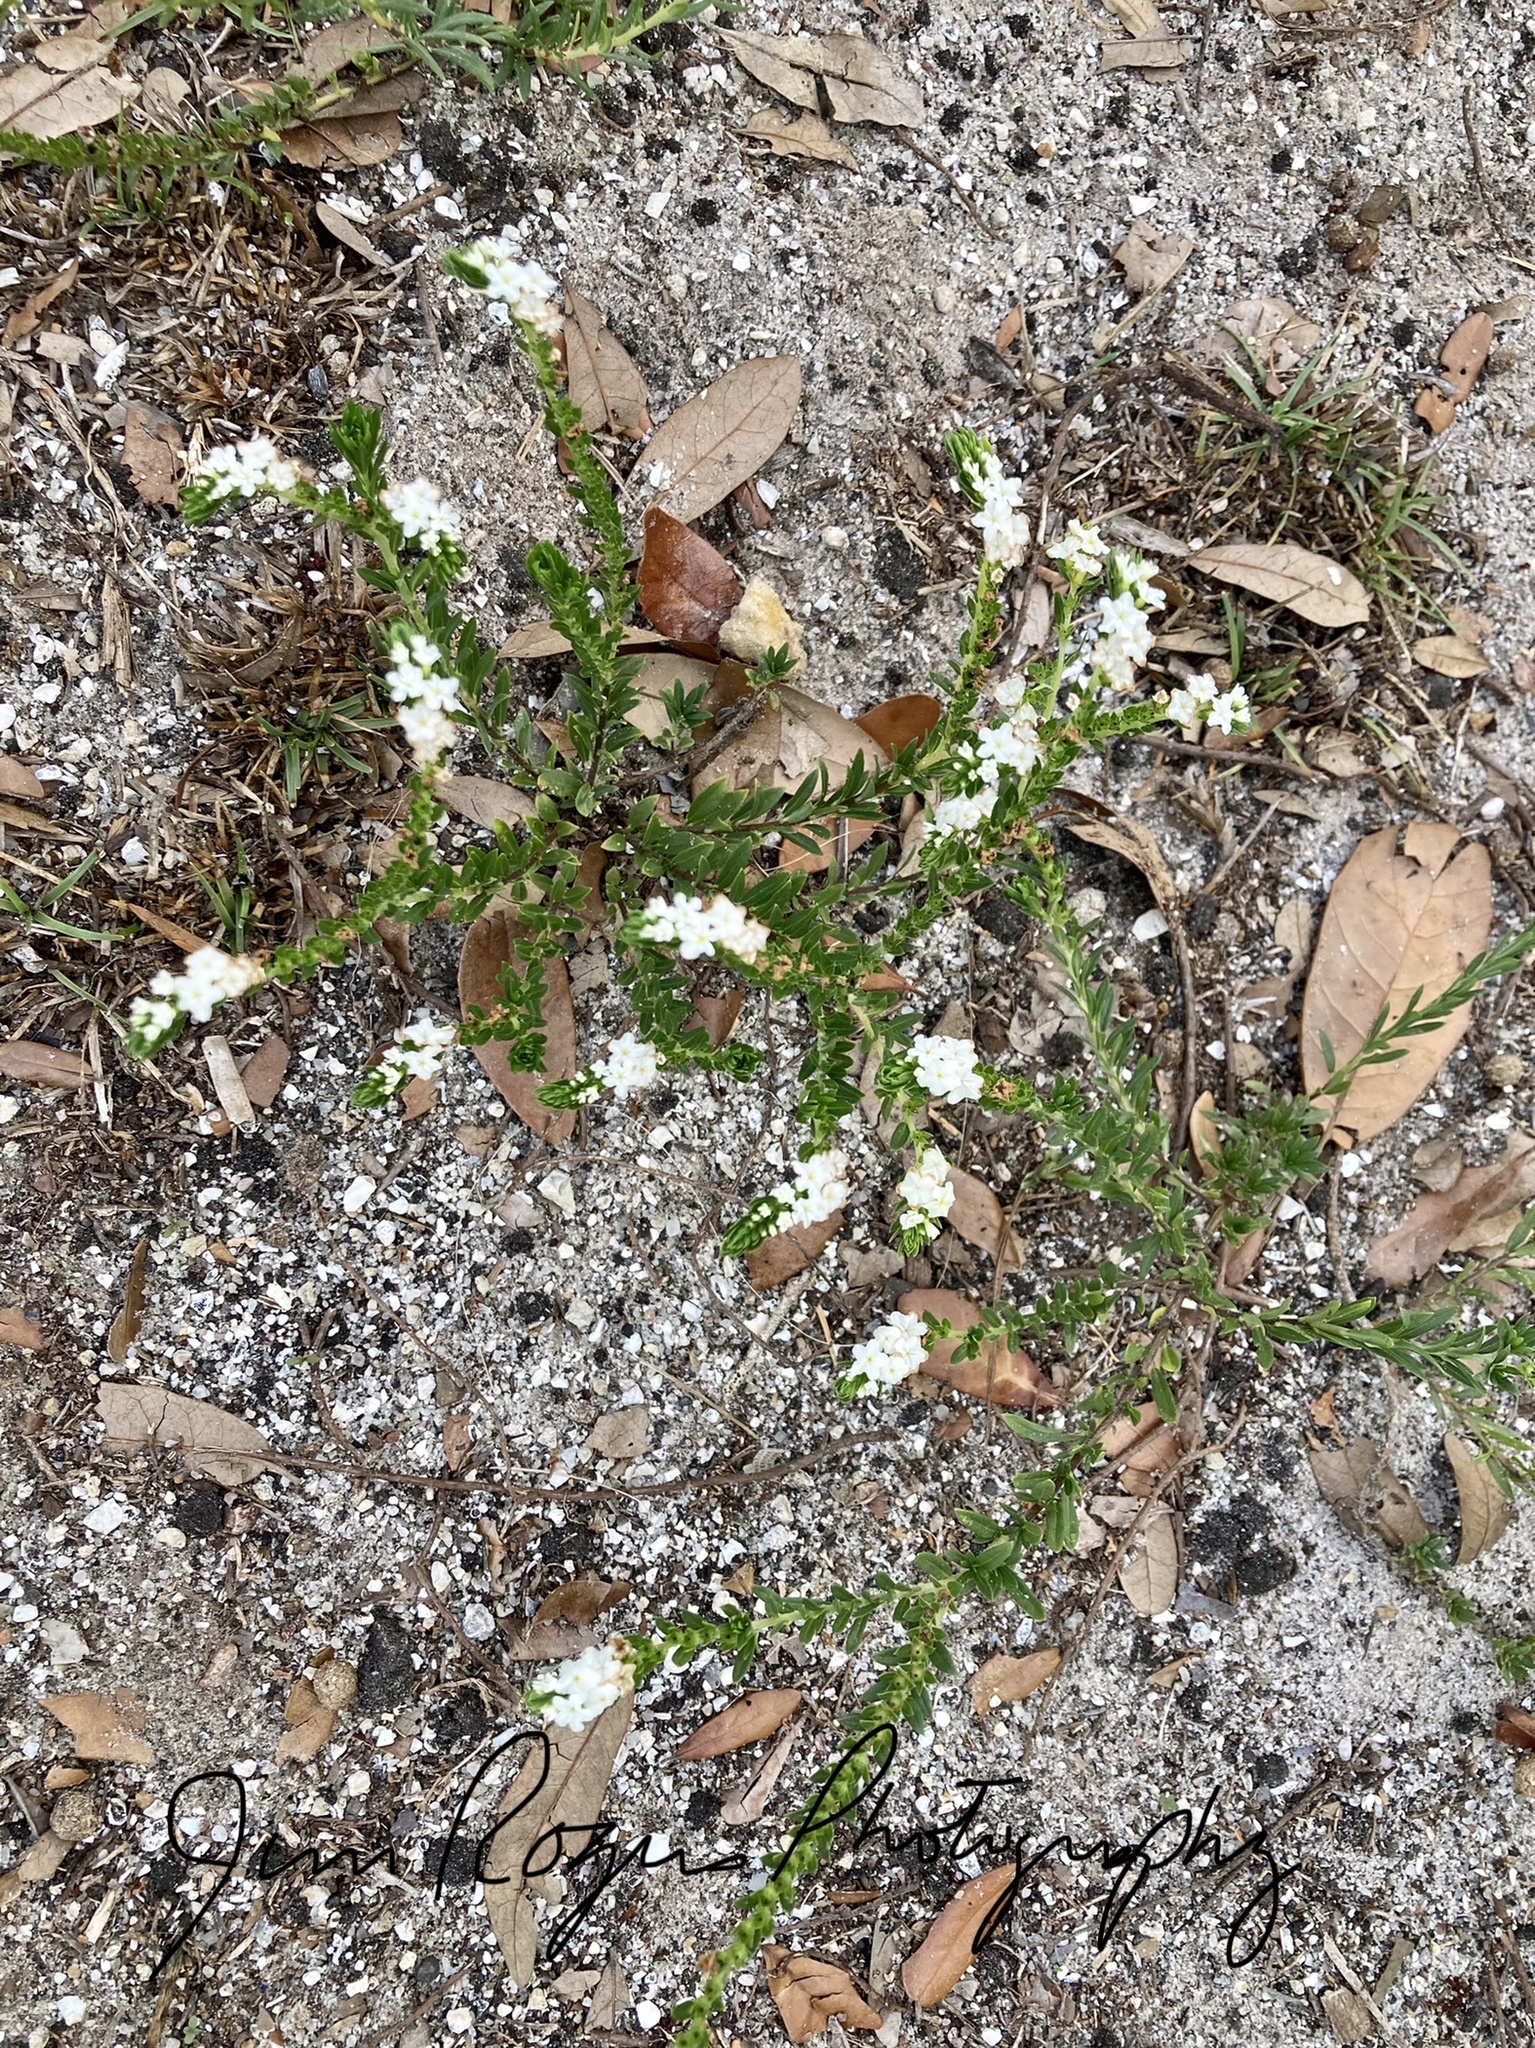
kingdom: Plantae
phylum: Tracheophyta
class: Magnoliopsida
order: Boraginales
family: Heliotropiaceae
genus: Euploca
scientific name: Euploca polyphylla
